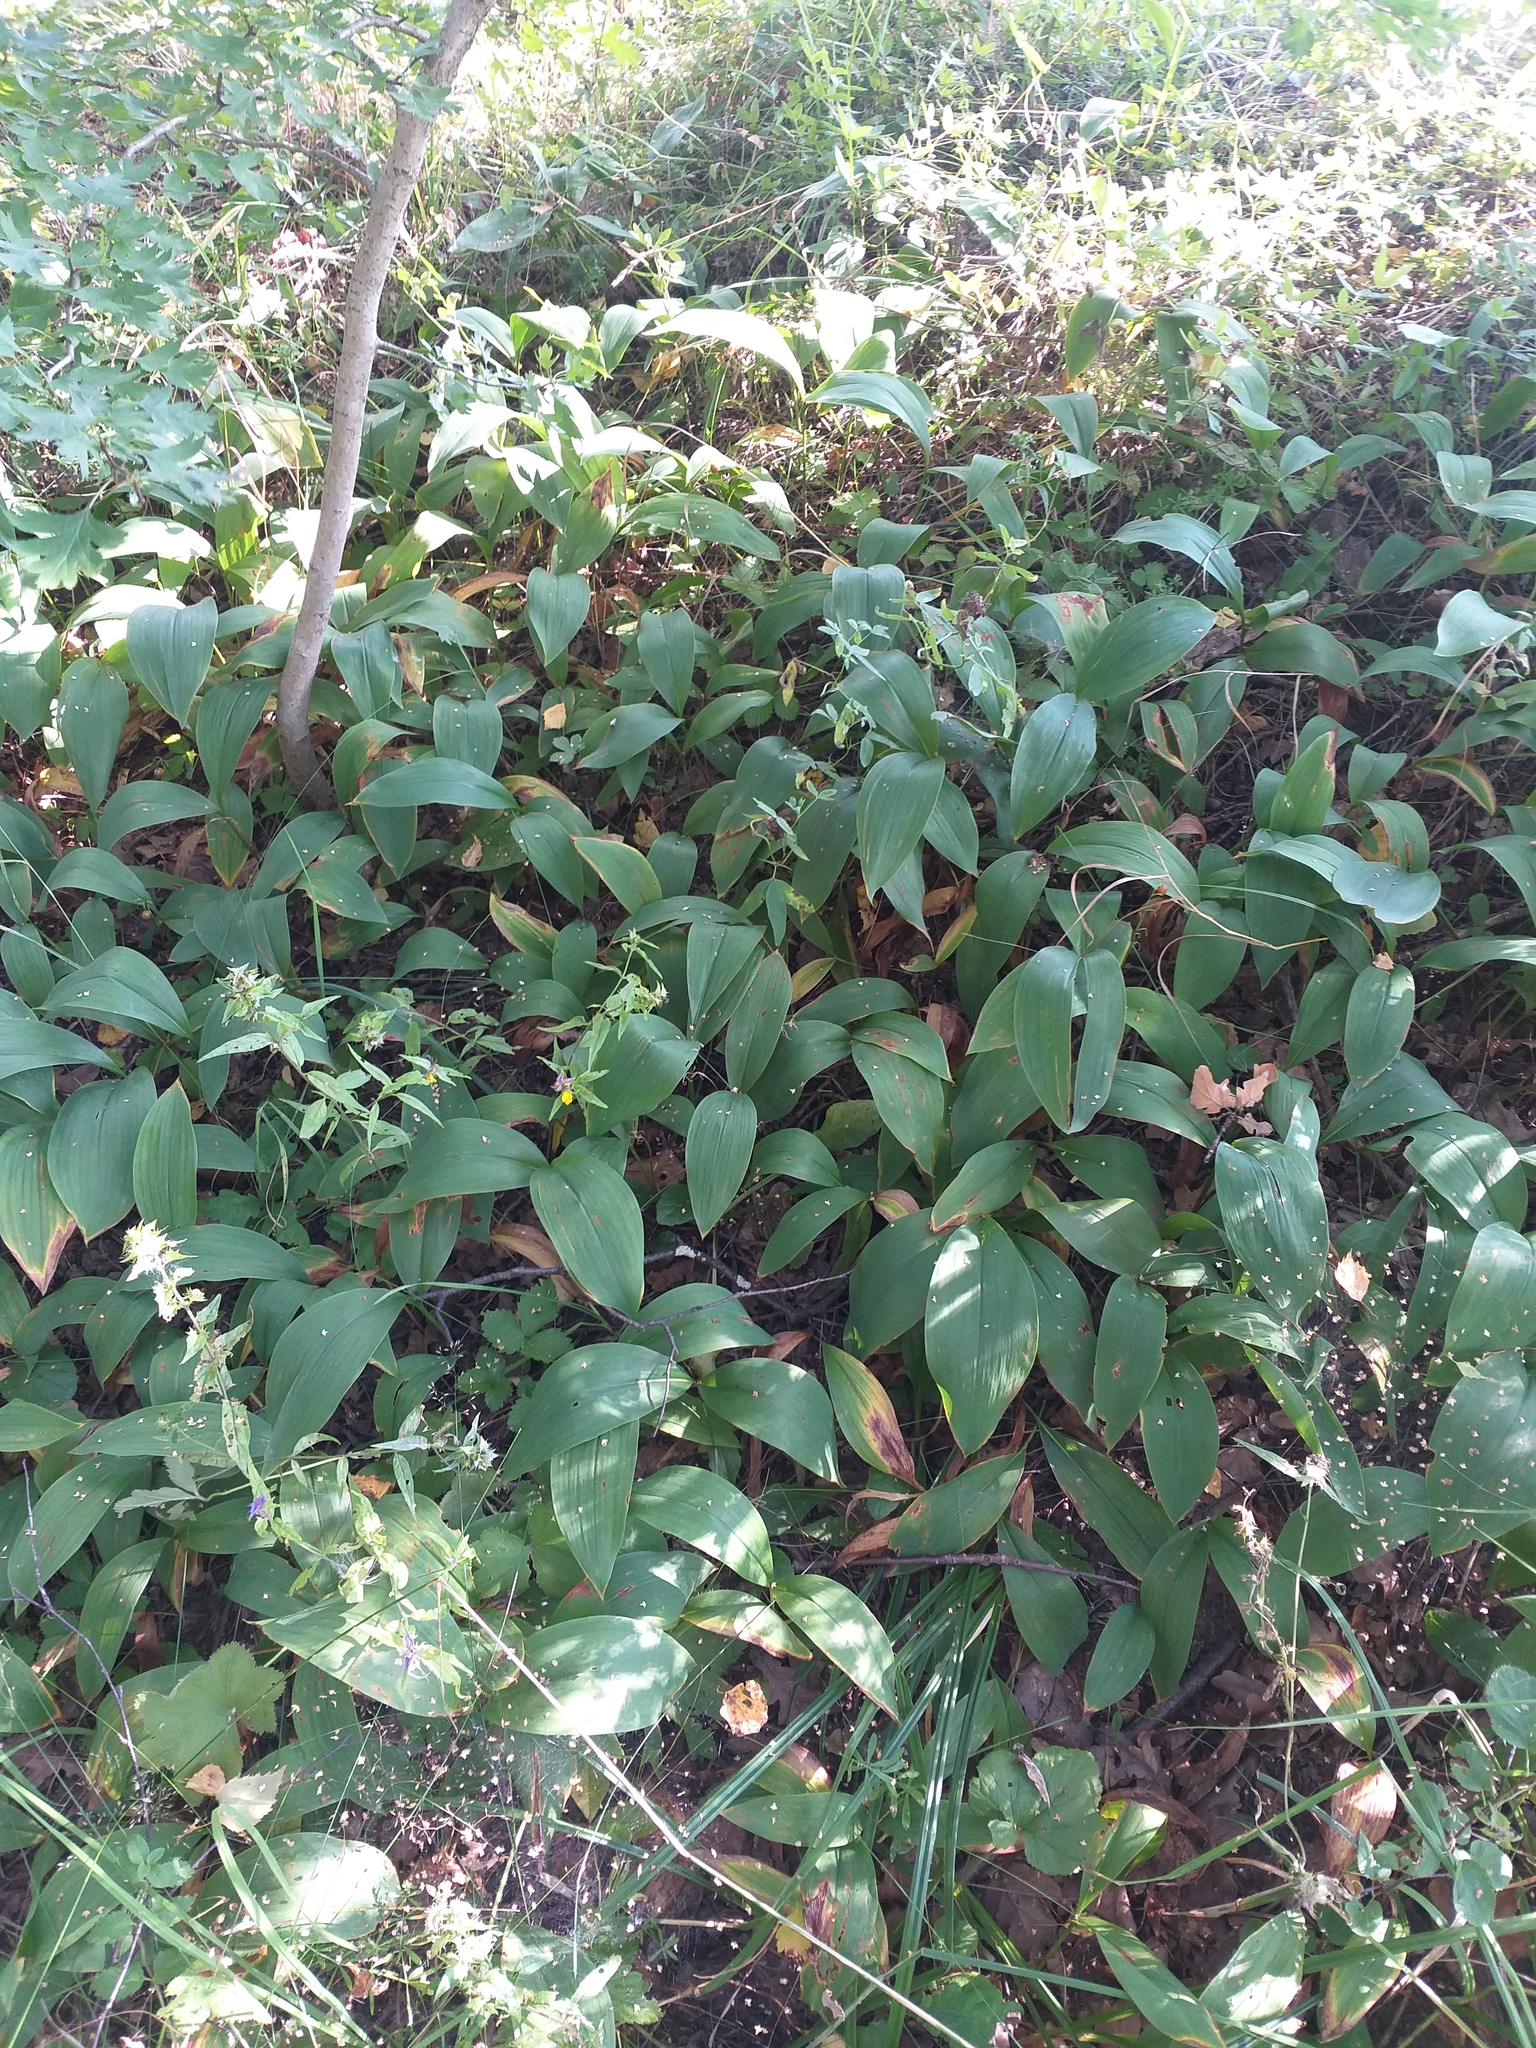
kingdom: Plantae
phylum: Tracheophyta
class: Liliopsida
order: Asparagales
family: Asparagaceae
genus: Convallaria
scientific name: Convallaria majalis
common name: Lily-of-the-valley
